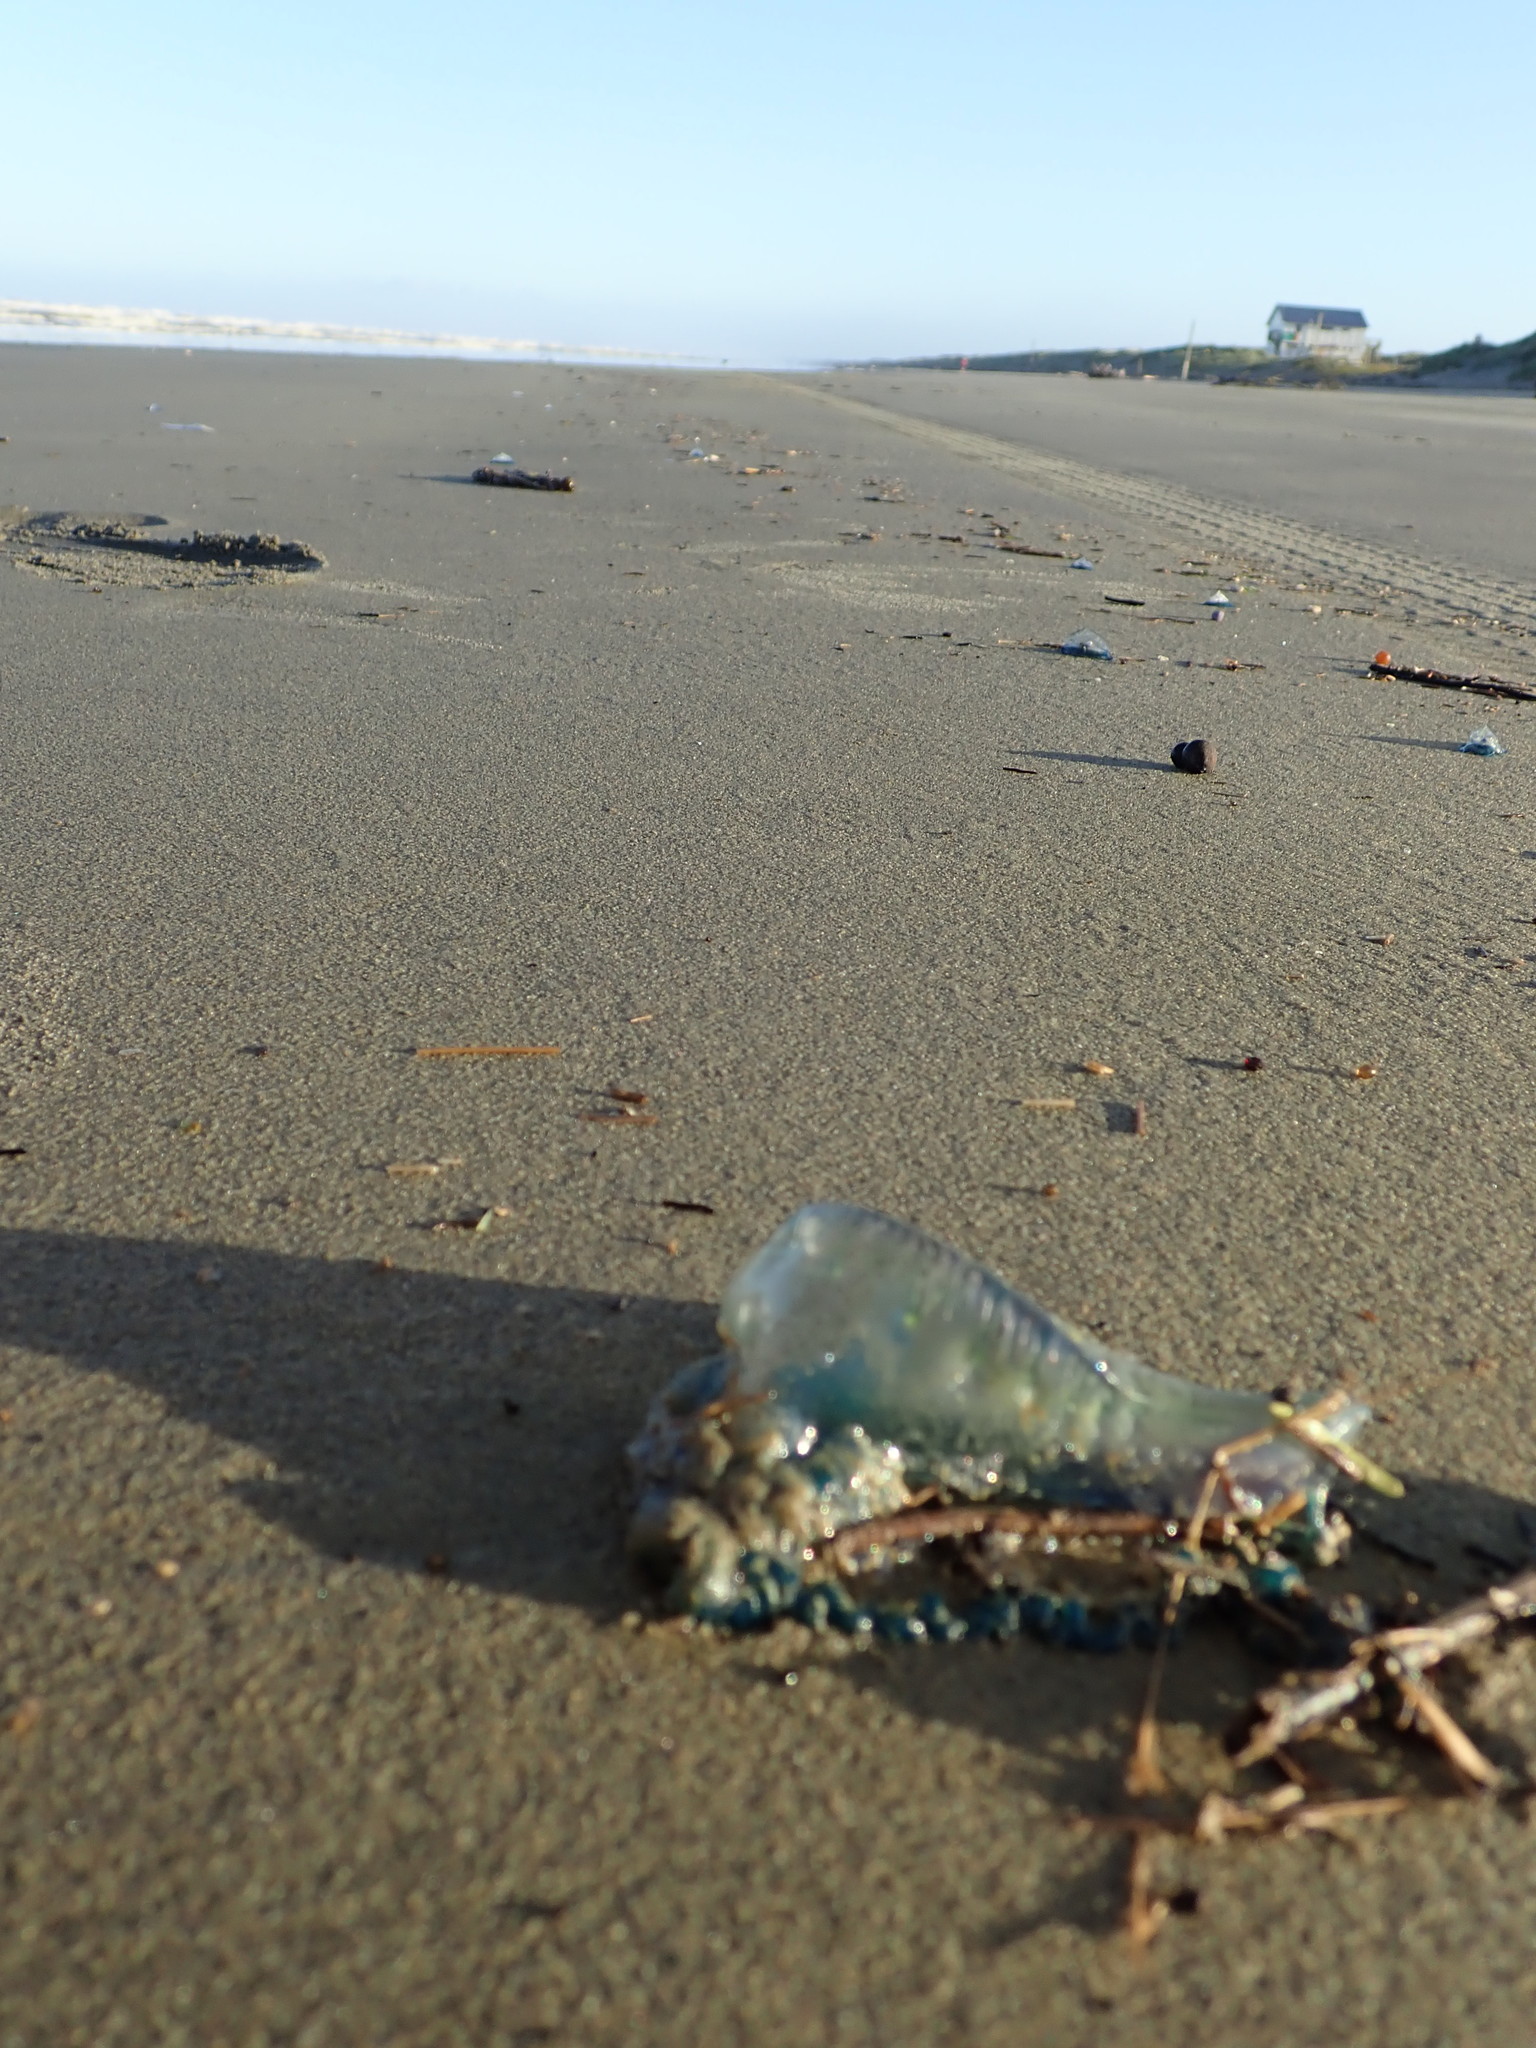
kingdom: Animalia
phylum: Cnidaria
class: Hydrozoa
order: Siphonophorae
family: Physaliidae
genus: Physalia
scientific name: Physalia physalis
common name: Portuguese man-of-war
